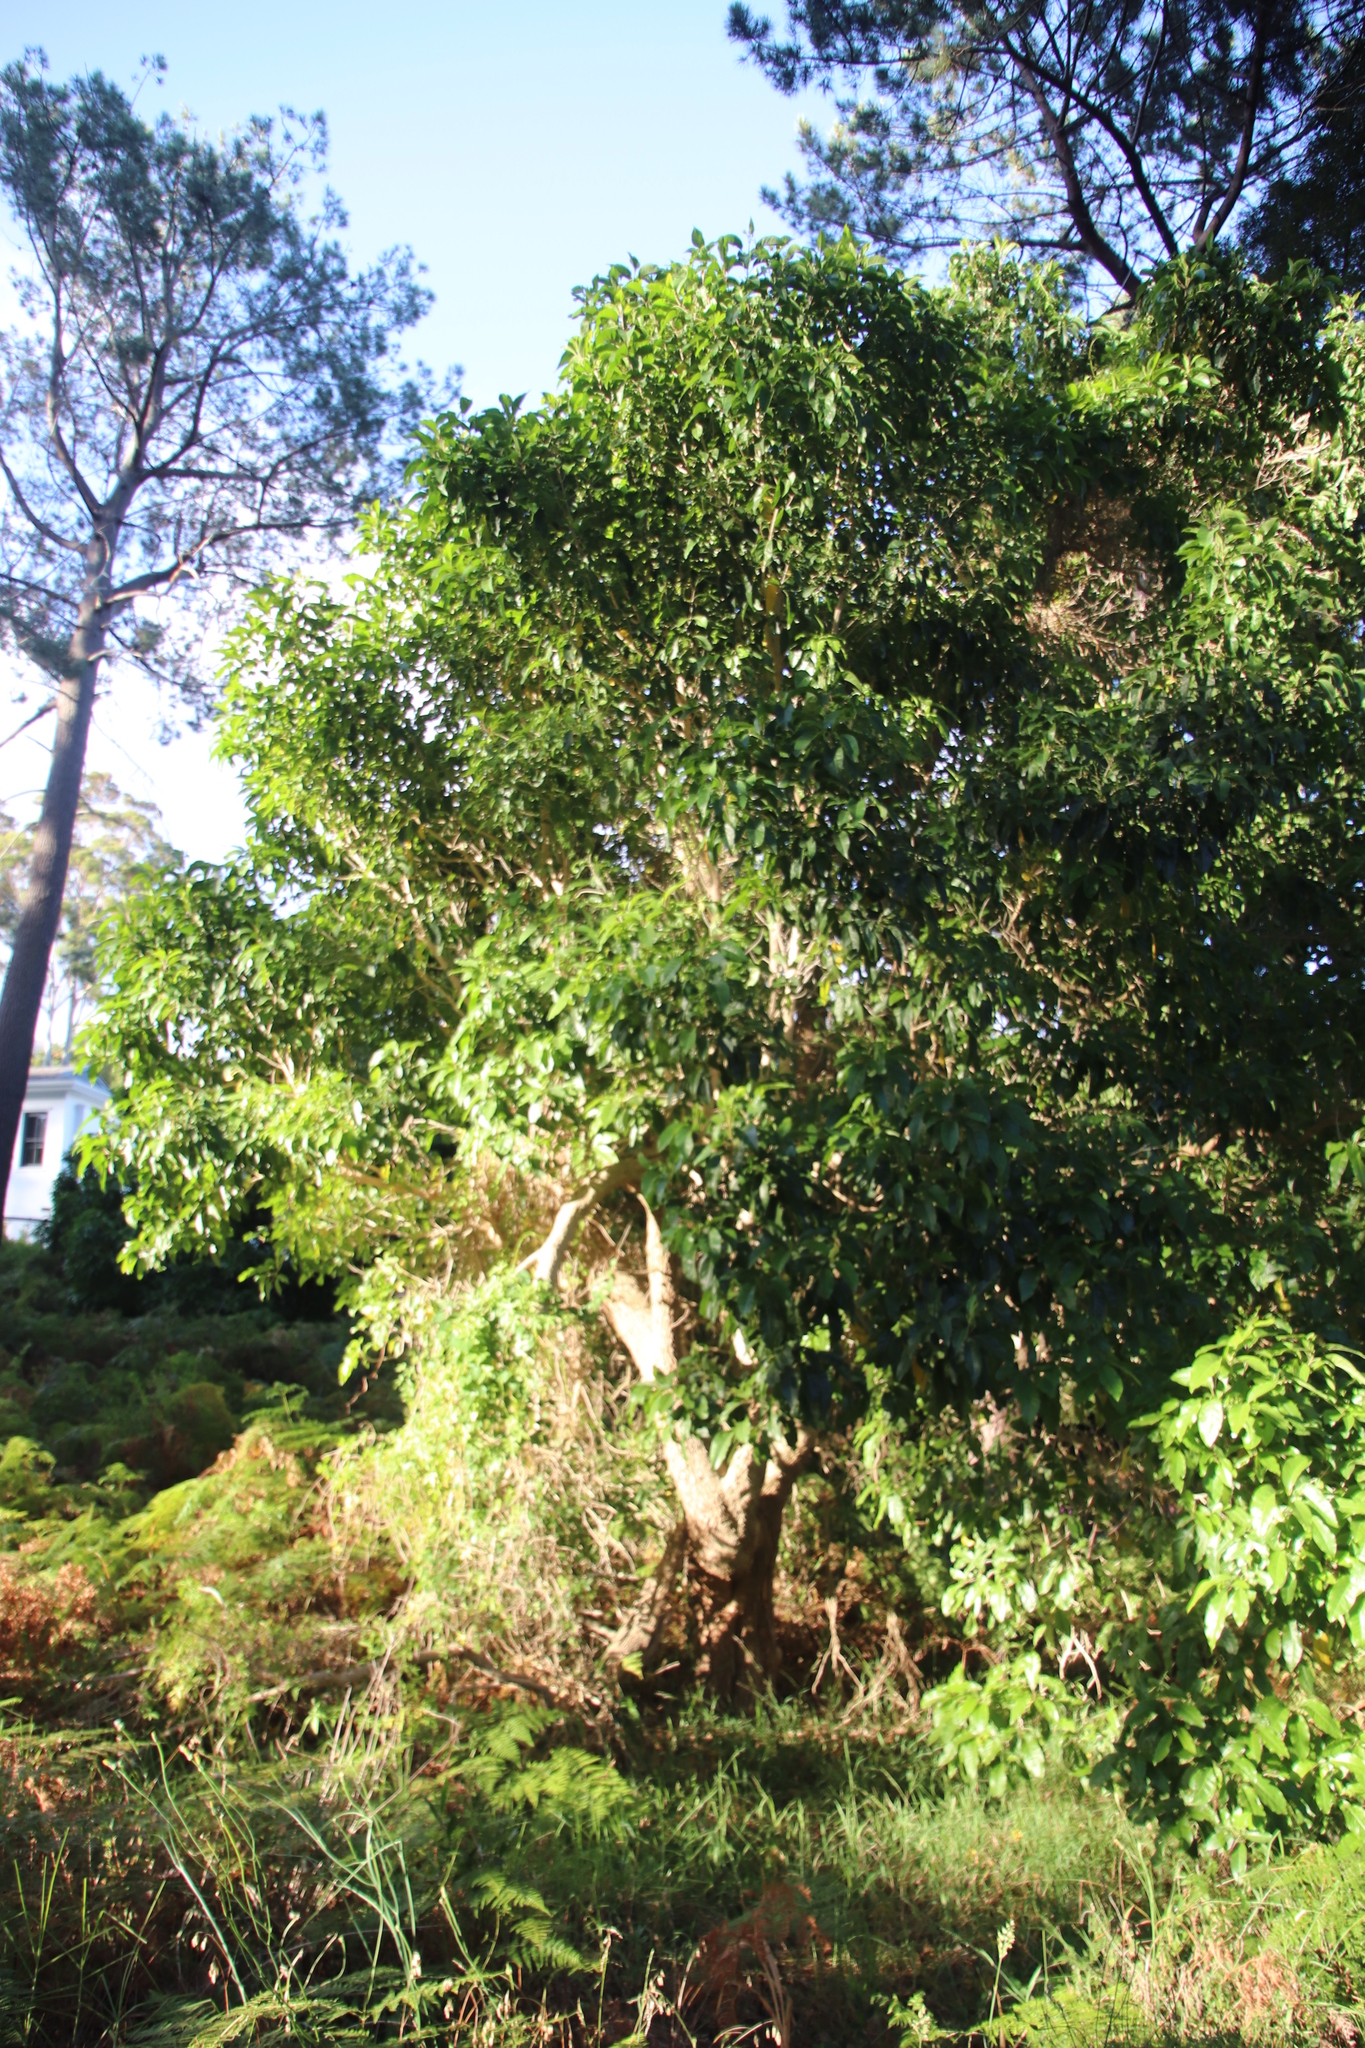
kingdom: Plantae
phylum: Tracheophyta
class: Magnoliopsida
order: Lamiales
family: Stilbaceae
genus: Nuxia
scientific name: Nuxia floribunda
